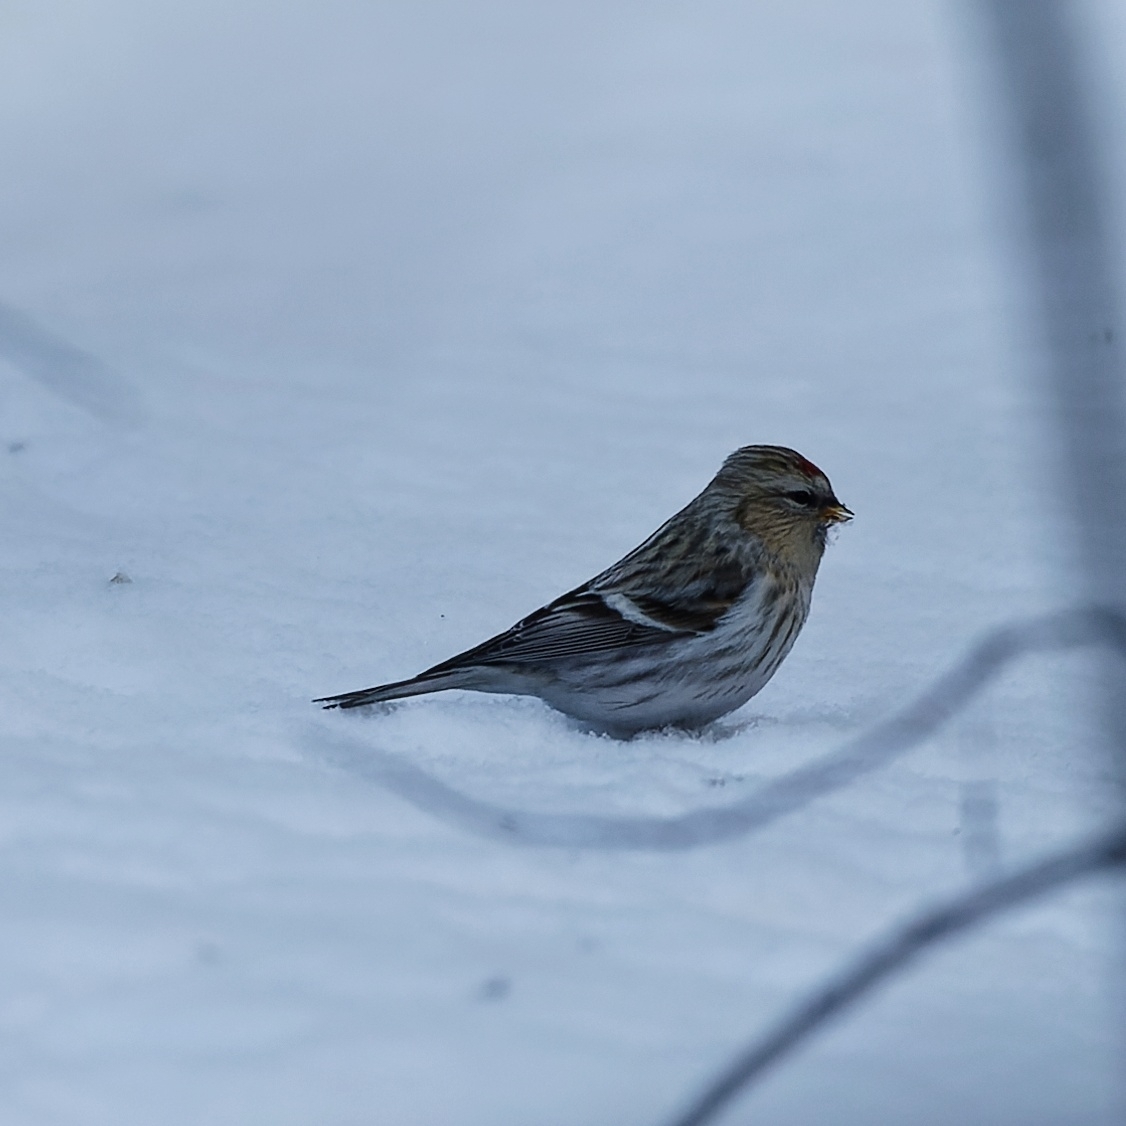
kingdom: Animalia
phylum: Chordata
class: Aves
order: Passeriformes
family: Fringillidae
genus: Acanthis
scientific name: Acanthis flammea
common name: Common redpoll
